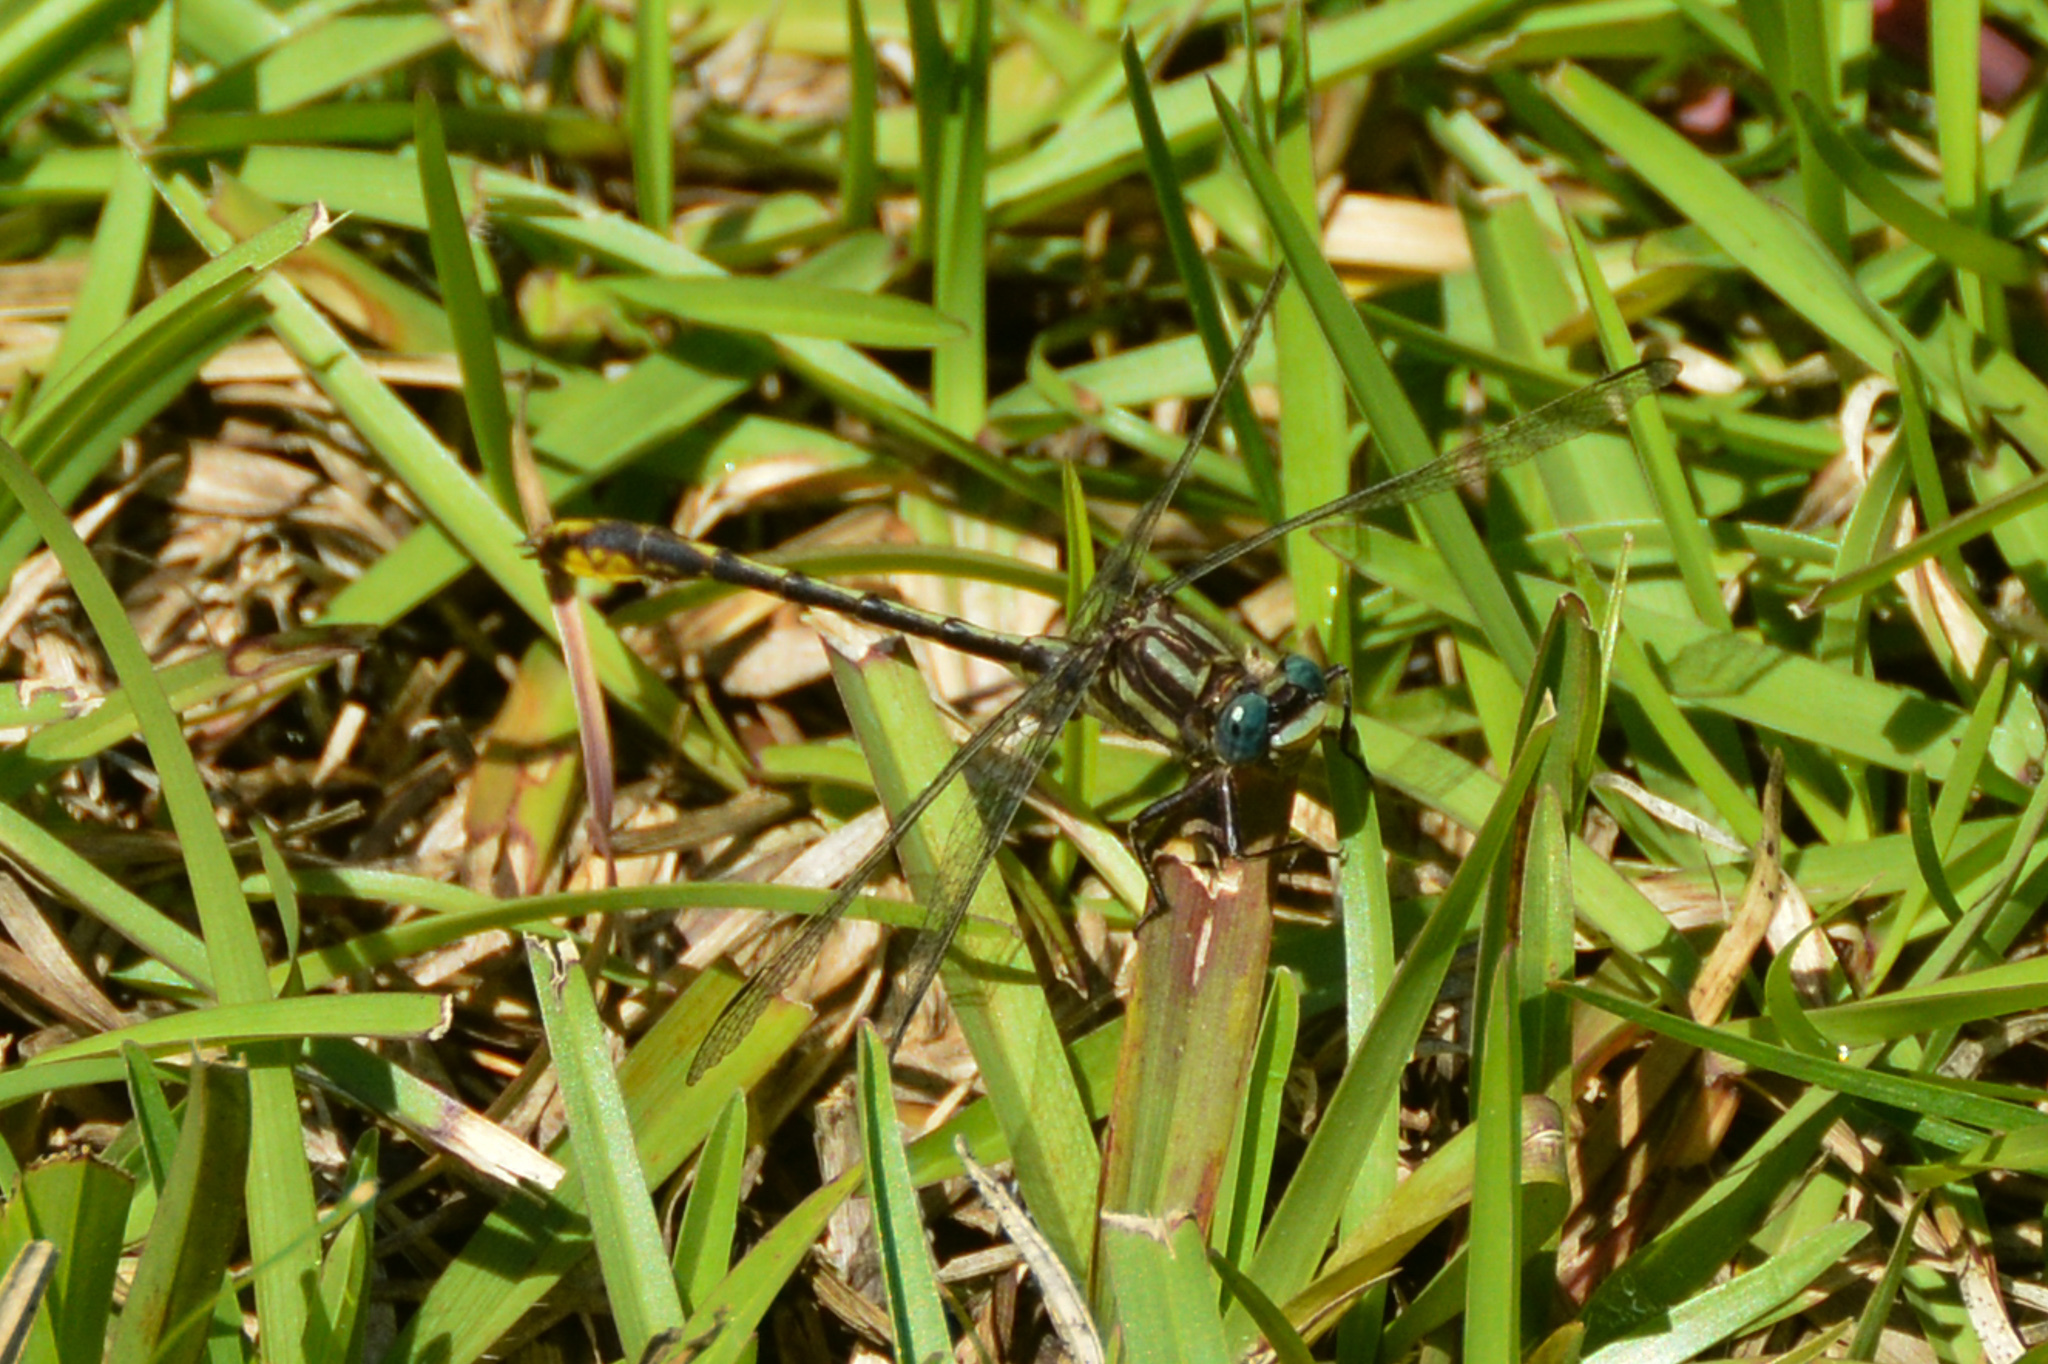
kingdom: Animalia
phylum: Arthropoda
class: Insecta
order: Odonata
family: Gomphidae
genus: Phanogomphus
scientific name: Phanogomphus exilis
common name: Lancet clubtail
